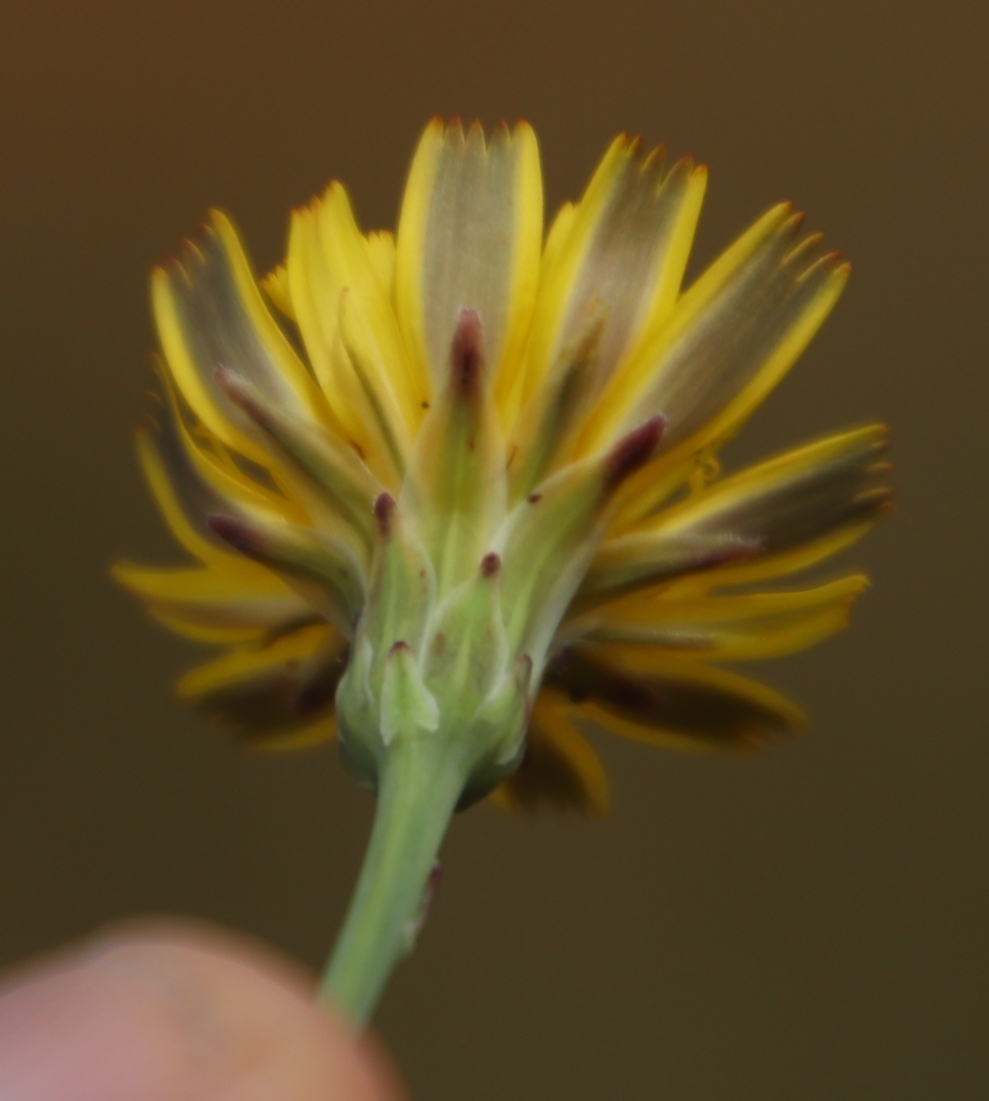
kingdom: Plantae
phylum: Tracheophyta
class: Magnoliopsida
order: Asterales
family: Asteraceae
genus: Hypochaeris
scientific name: Hypochaeris radicata
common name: Flatweed
